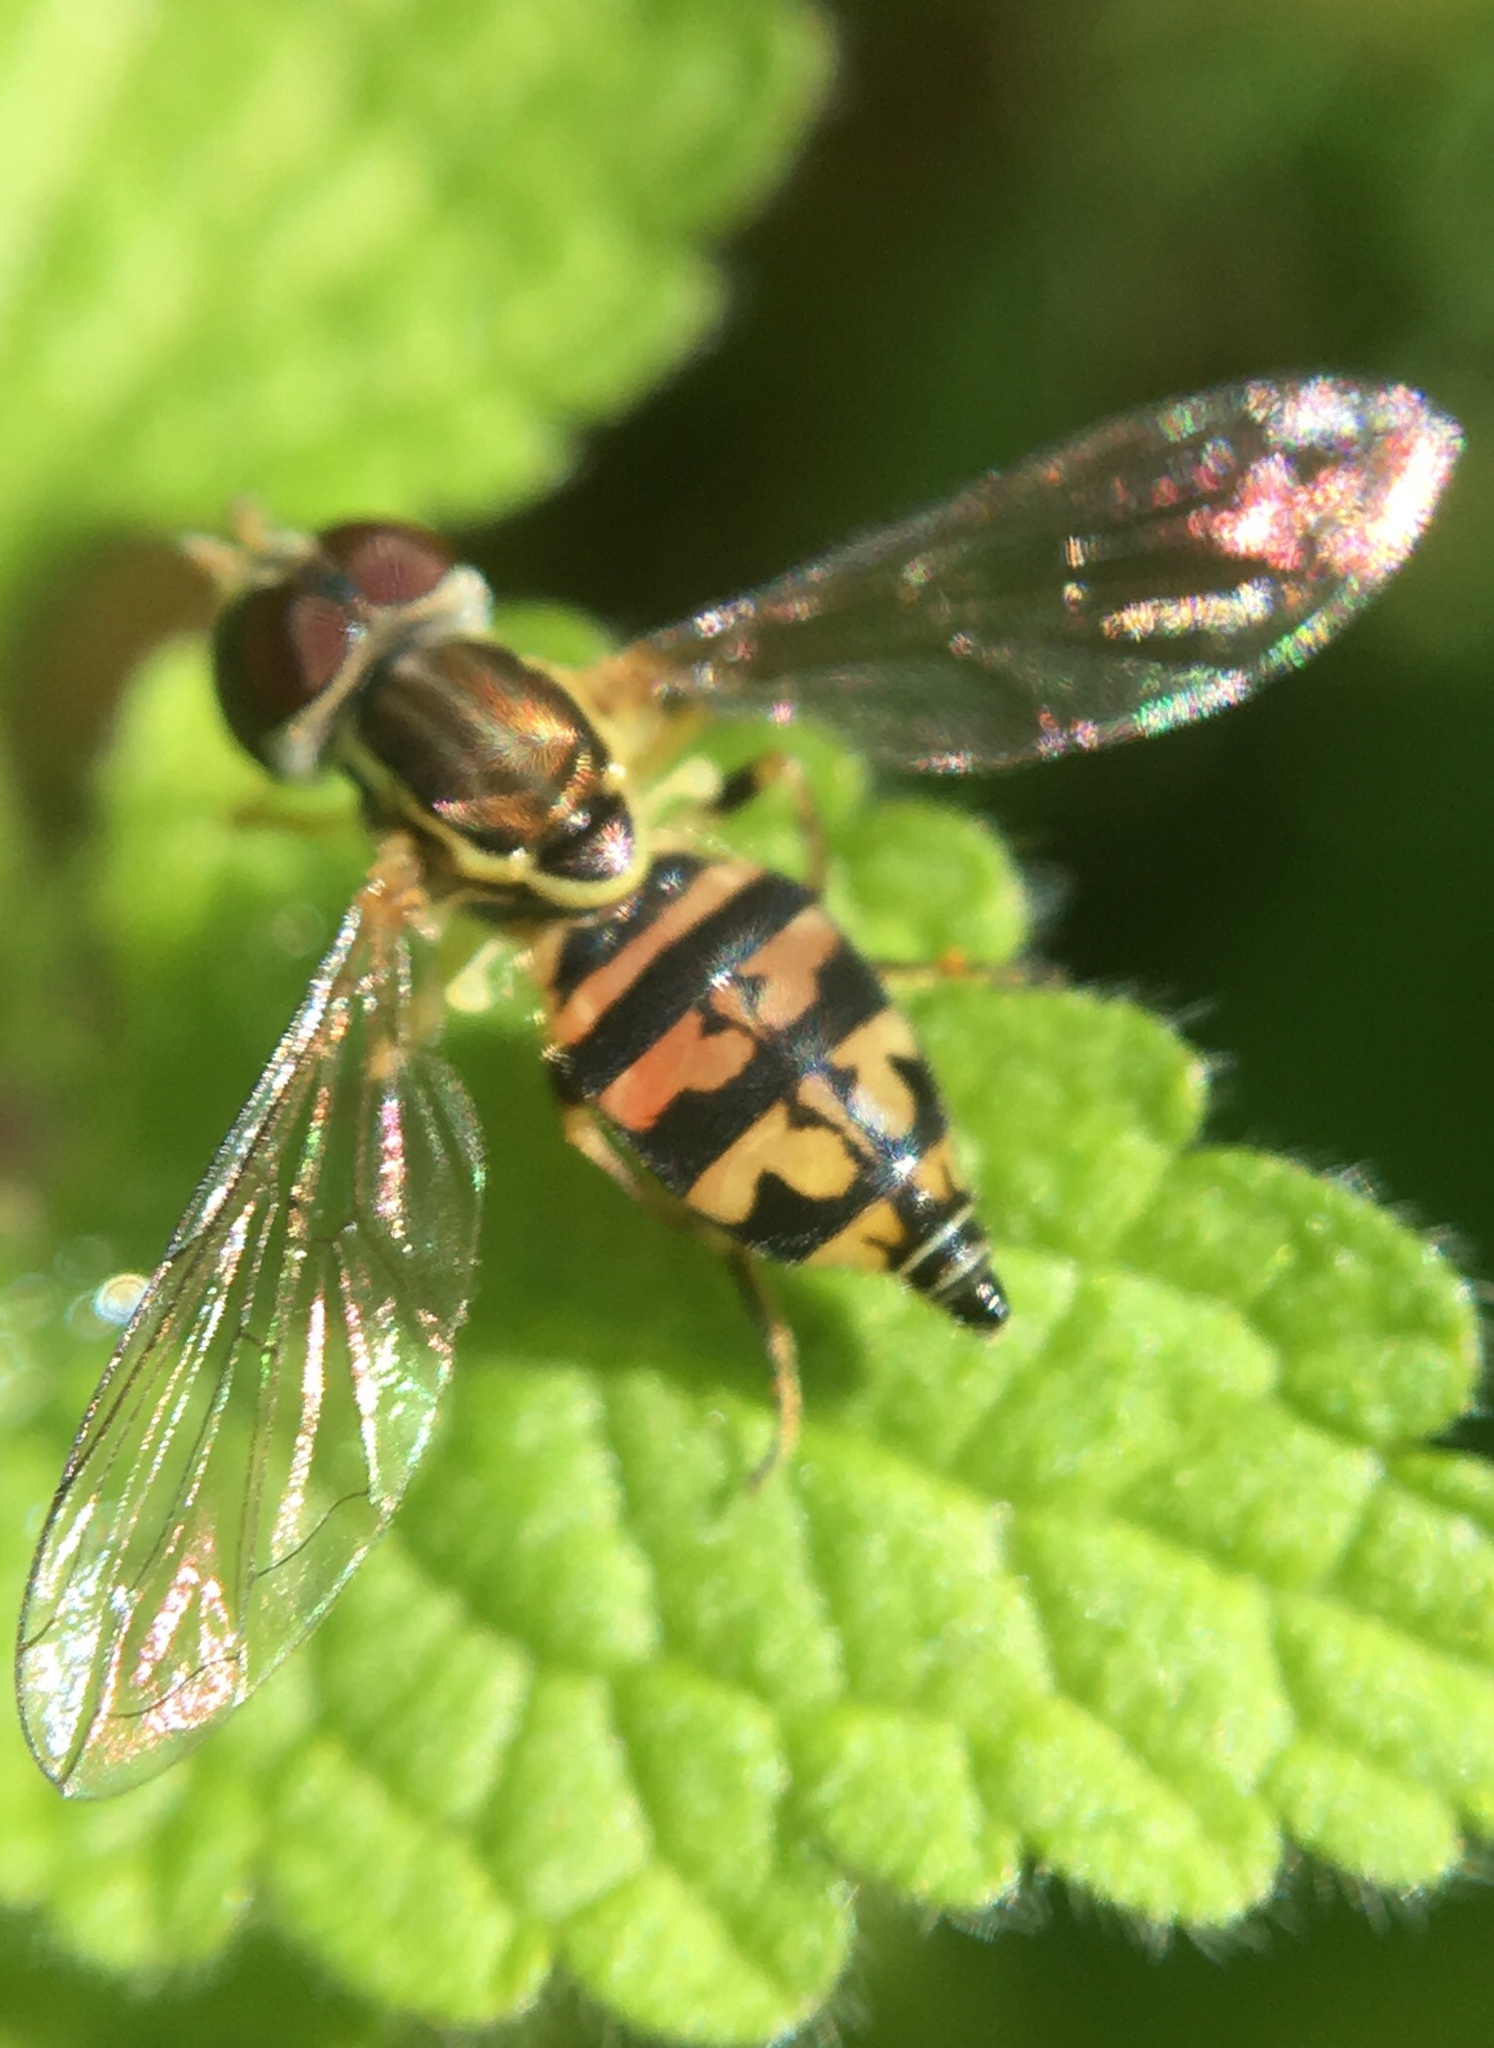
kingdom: Animalia
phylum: Arthropoda
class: Insecta
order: Diptera
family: Syrphidae
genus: Toxomerus
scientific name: Toxomerus geminatus
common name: Eastern calligrapher
